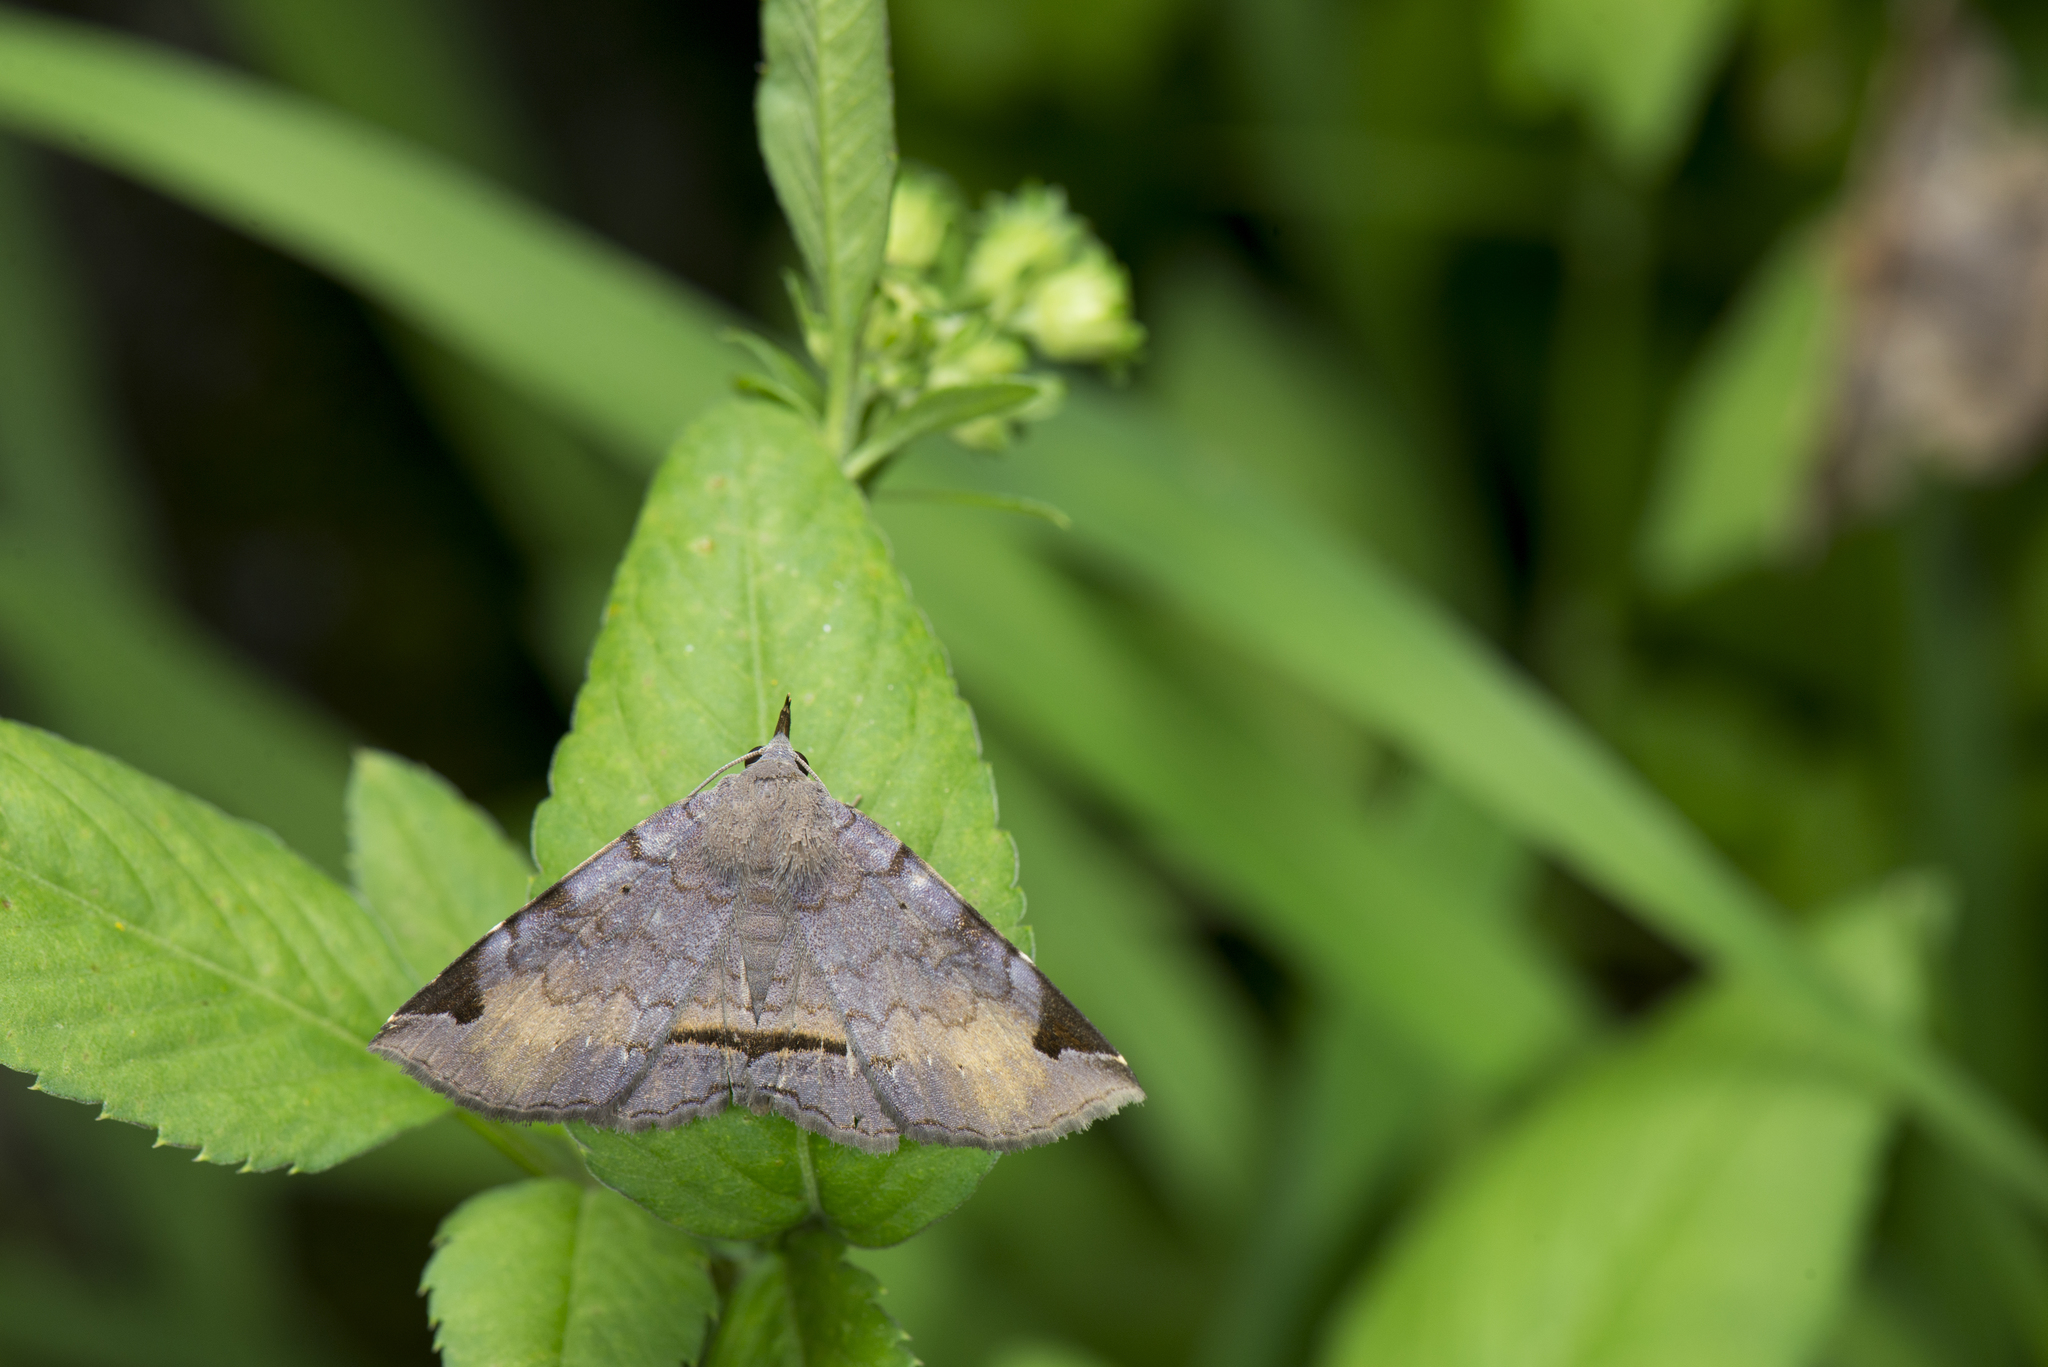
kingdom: Animalia
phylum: Arthropoda
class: Insecta
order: Lepidoptera
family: Erebidae
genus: Mecodina
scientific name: Mecodina subcostalis
